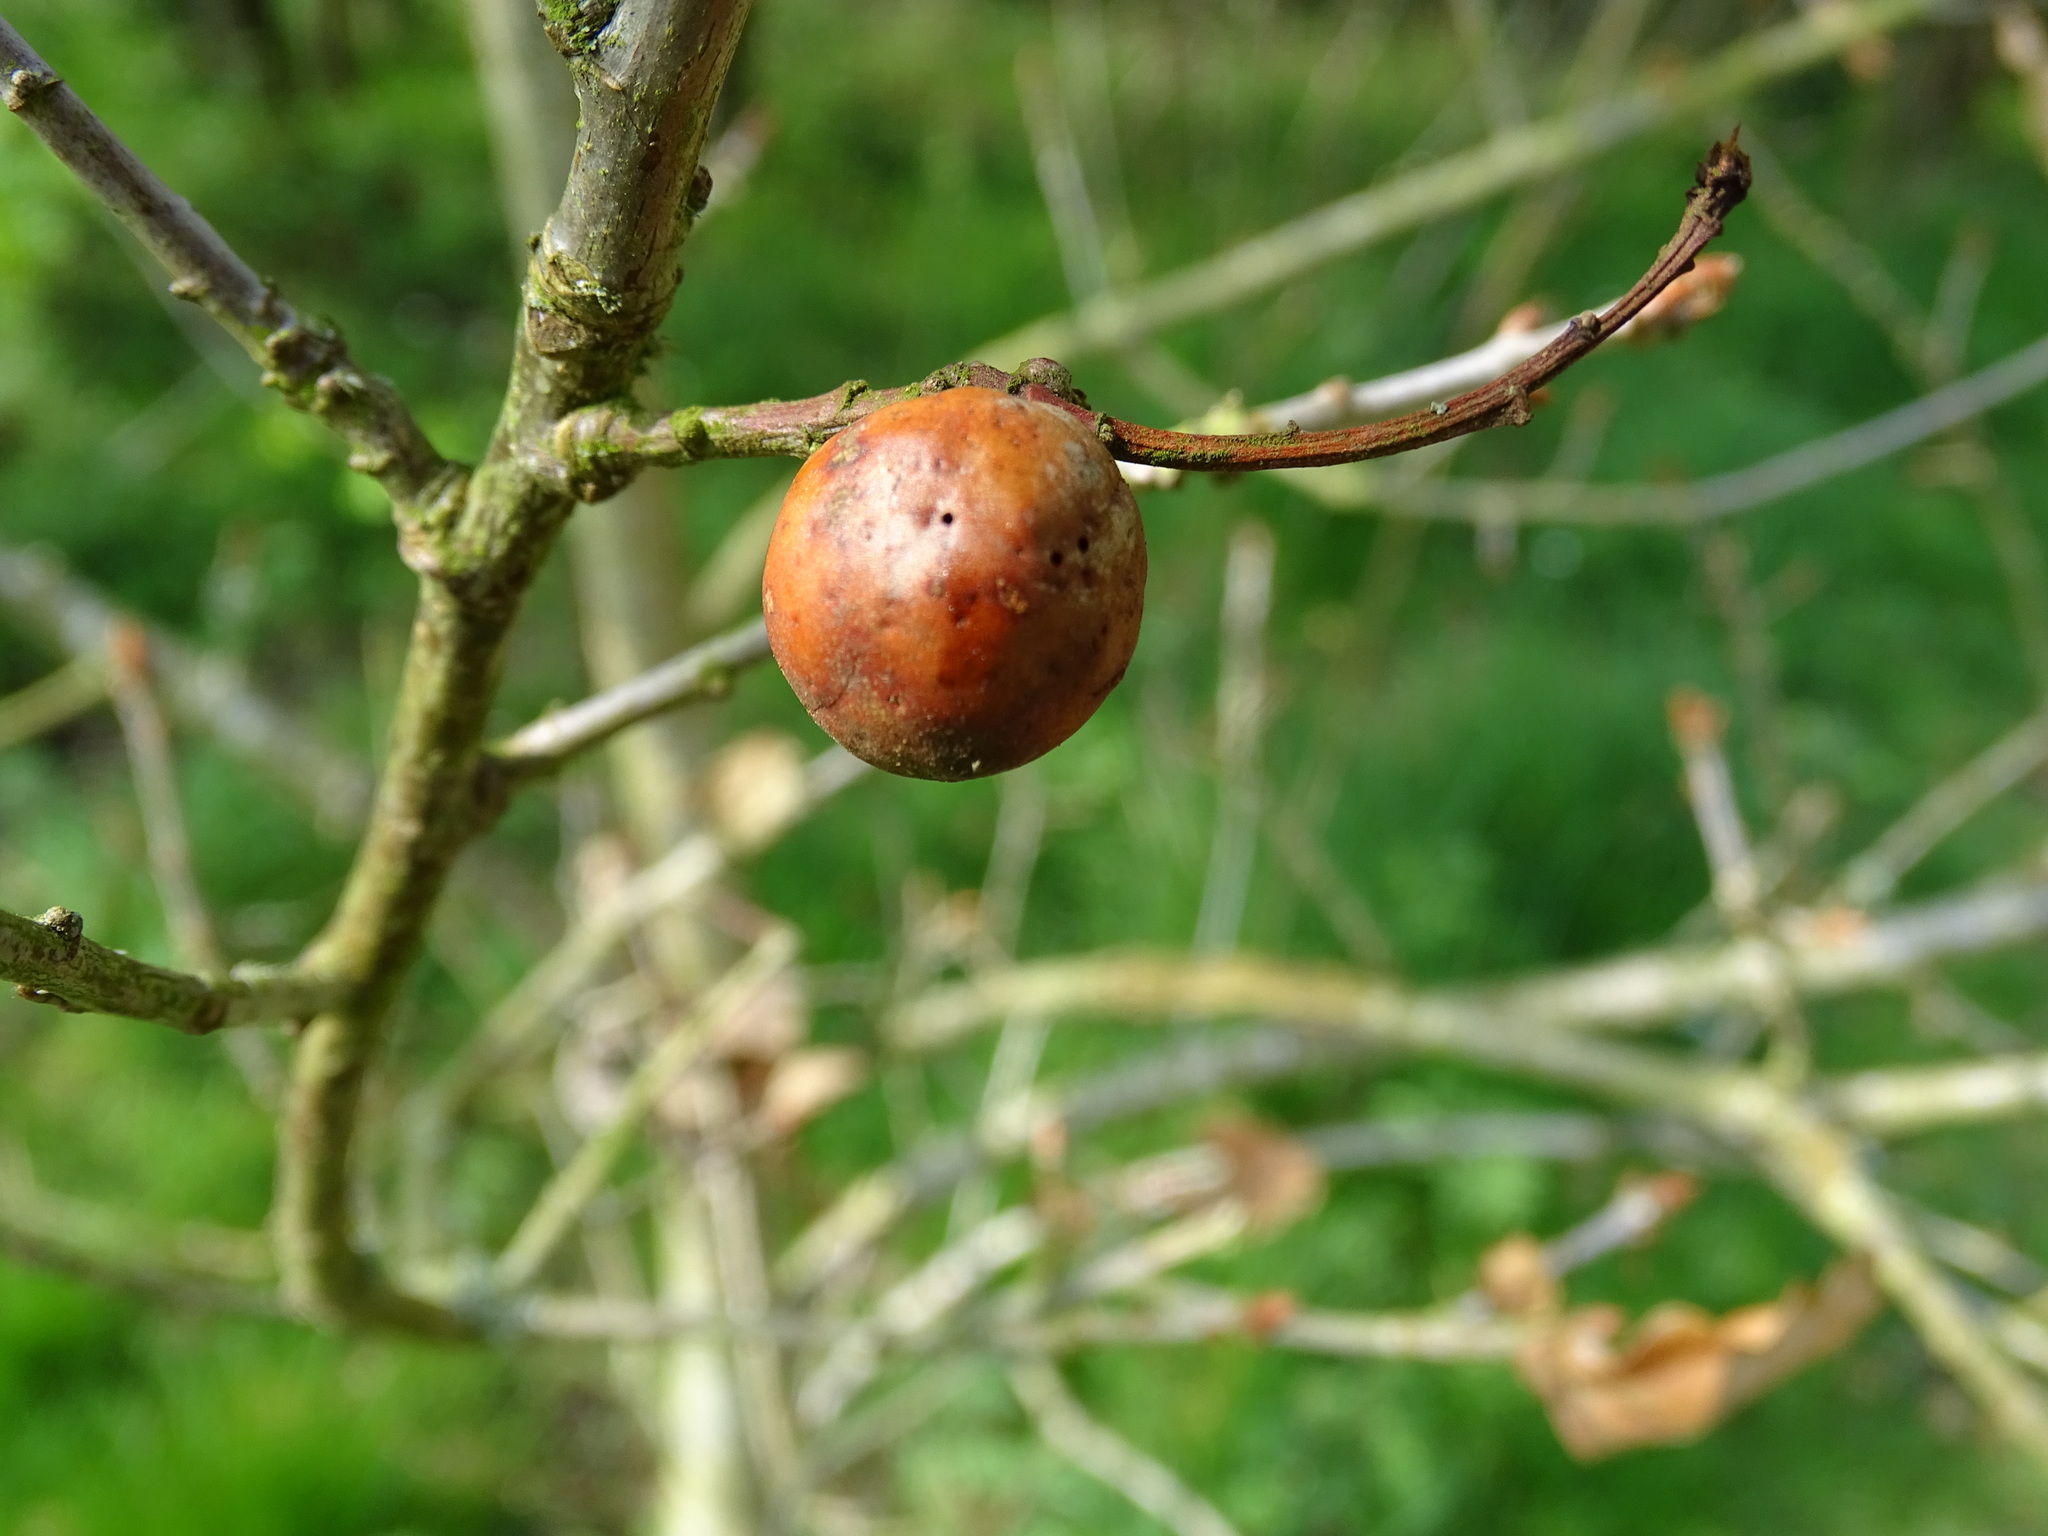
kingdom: Animalia
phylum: Arthropoda
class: Insecta
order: Hymenoptera
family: Cynipidae
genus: Andricus
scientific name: Andricus kollari
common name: Marble gall
